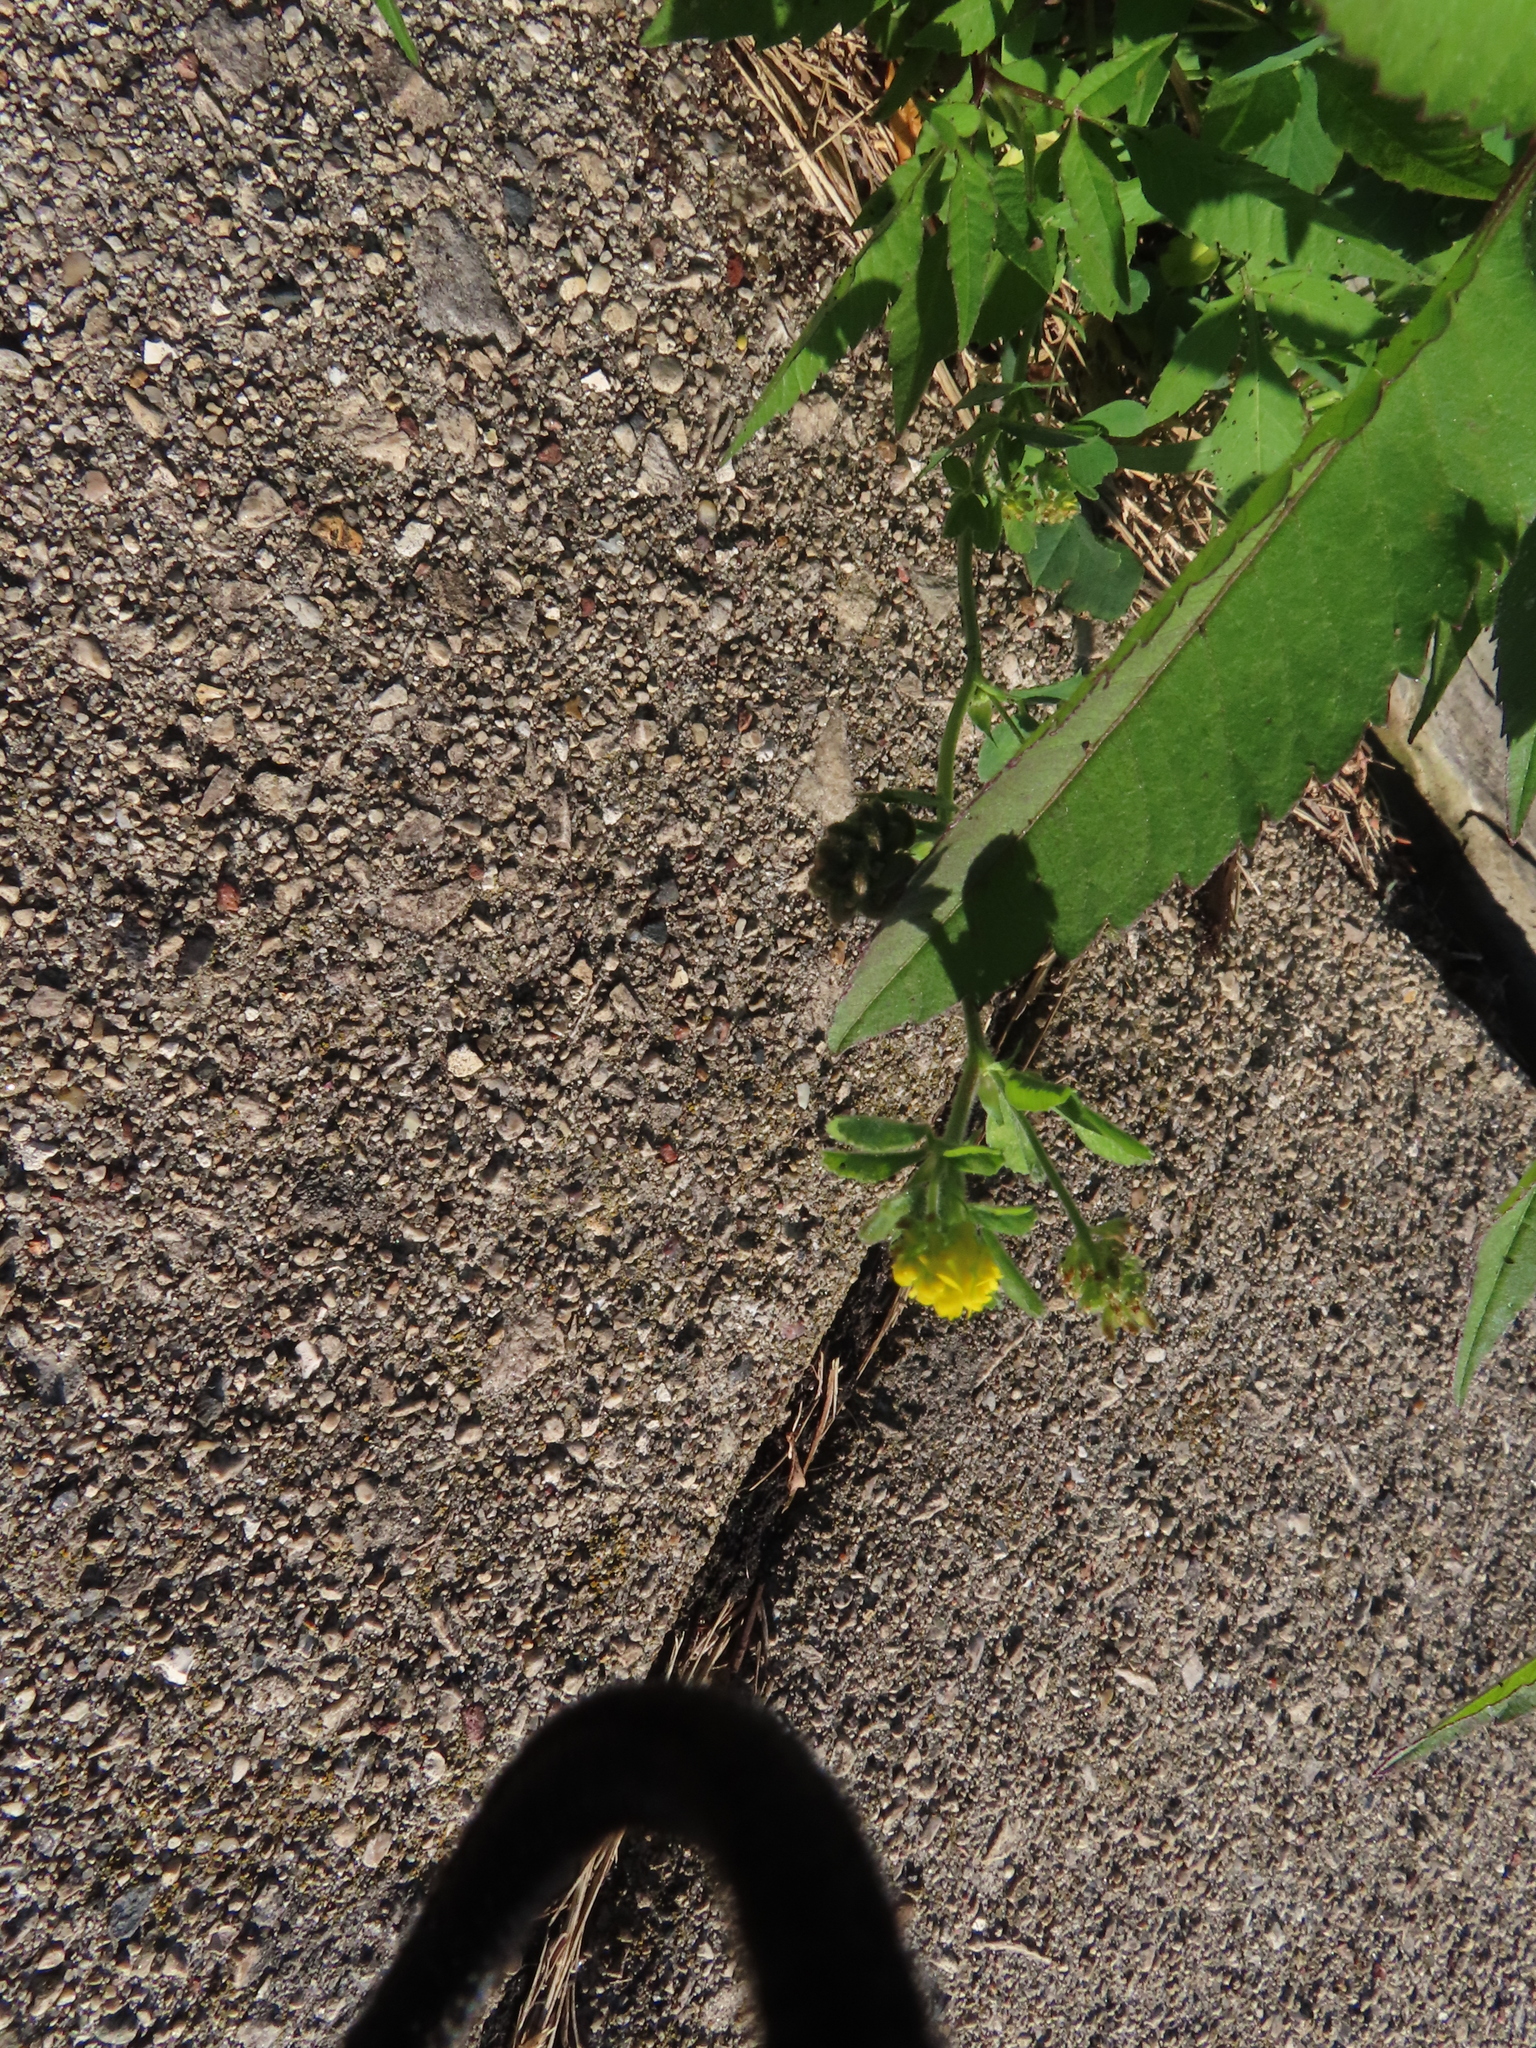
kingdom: Plantae
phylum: Tracheophyta
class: Magnoliopsida
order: Fabales
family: Fabaceae
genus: Medicago
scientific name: Medicago lupulina
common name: Black medick
